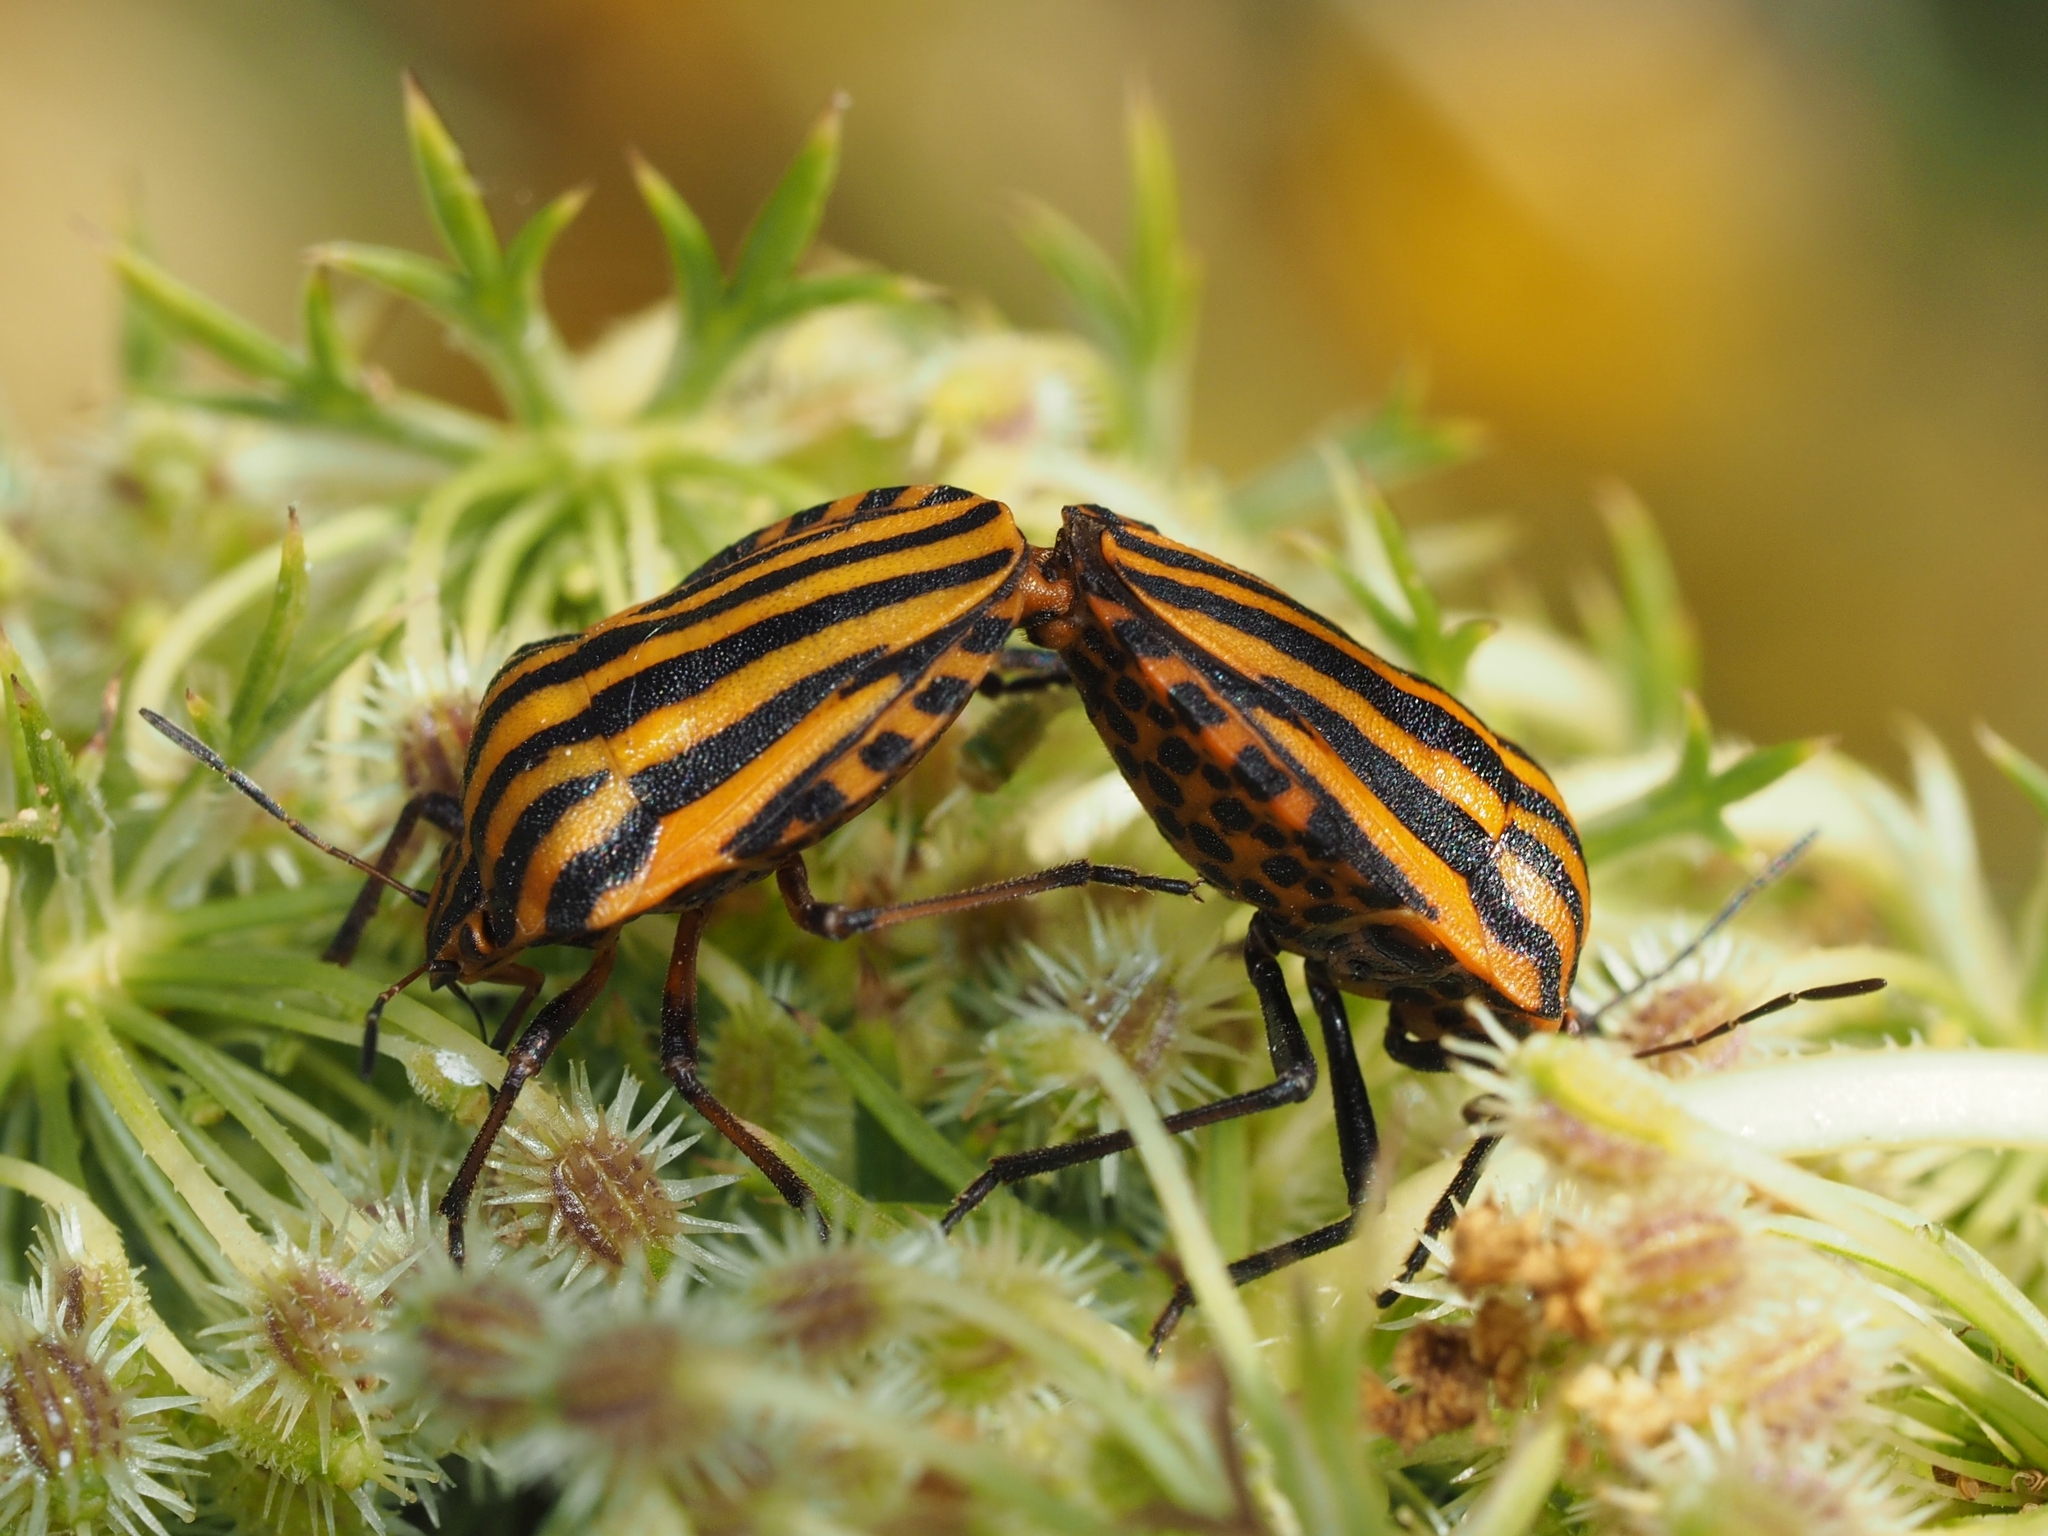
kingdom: Animalia
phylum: Arthropoda
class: Insecta
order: Hemiptera
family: Pentatomidae
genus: Graphosoma
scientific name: Graphosoma lineatum
